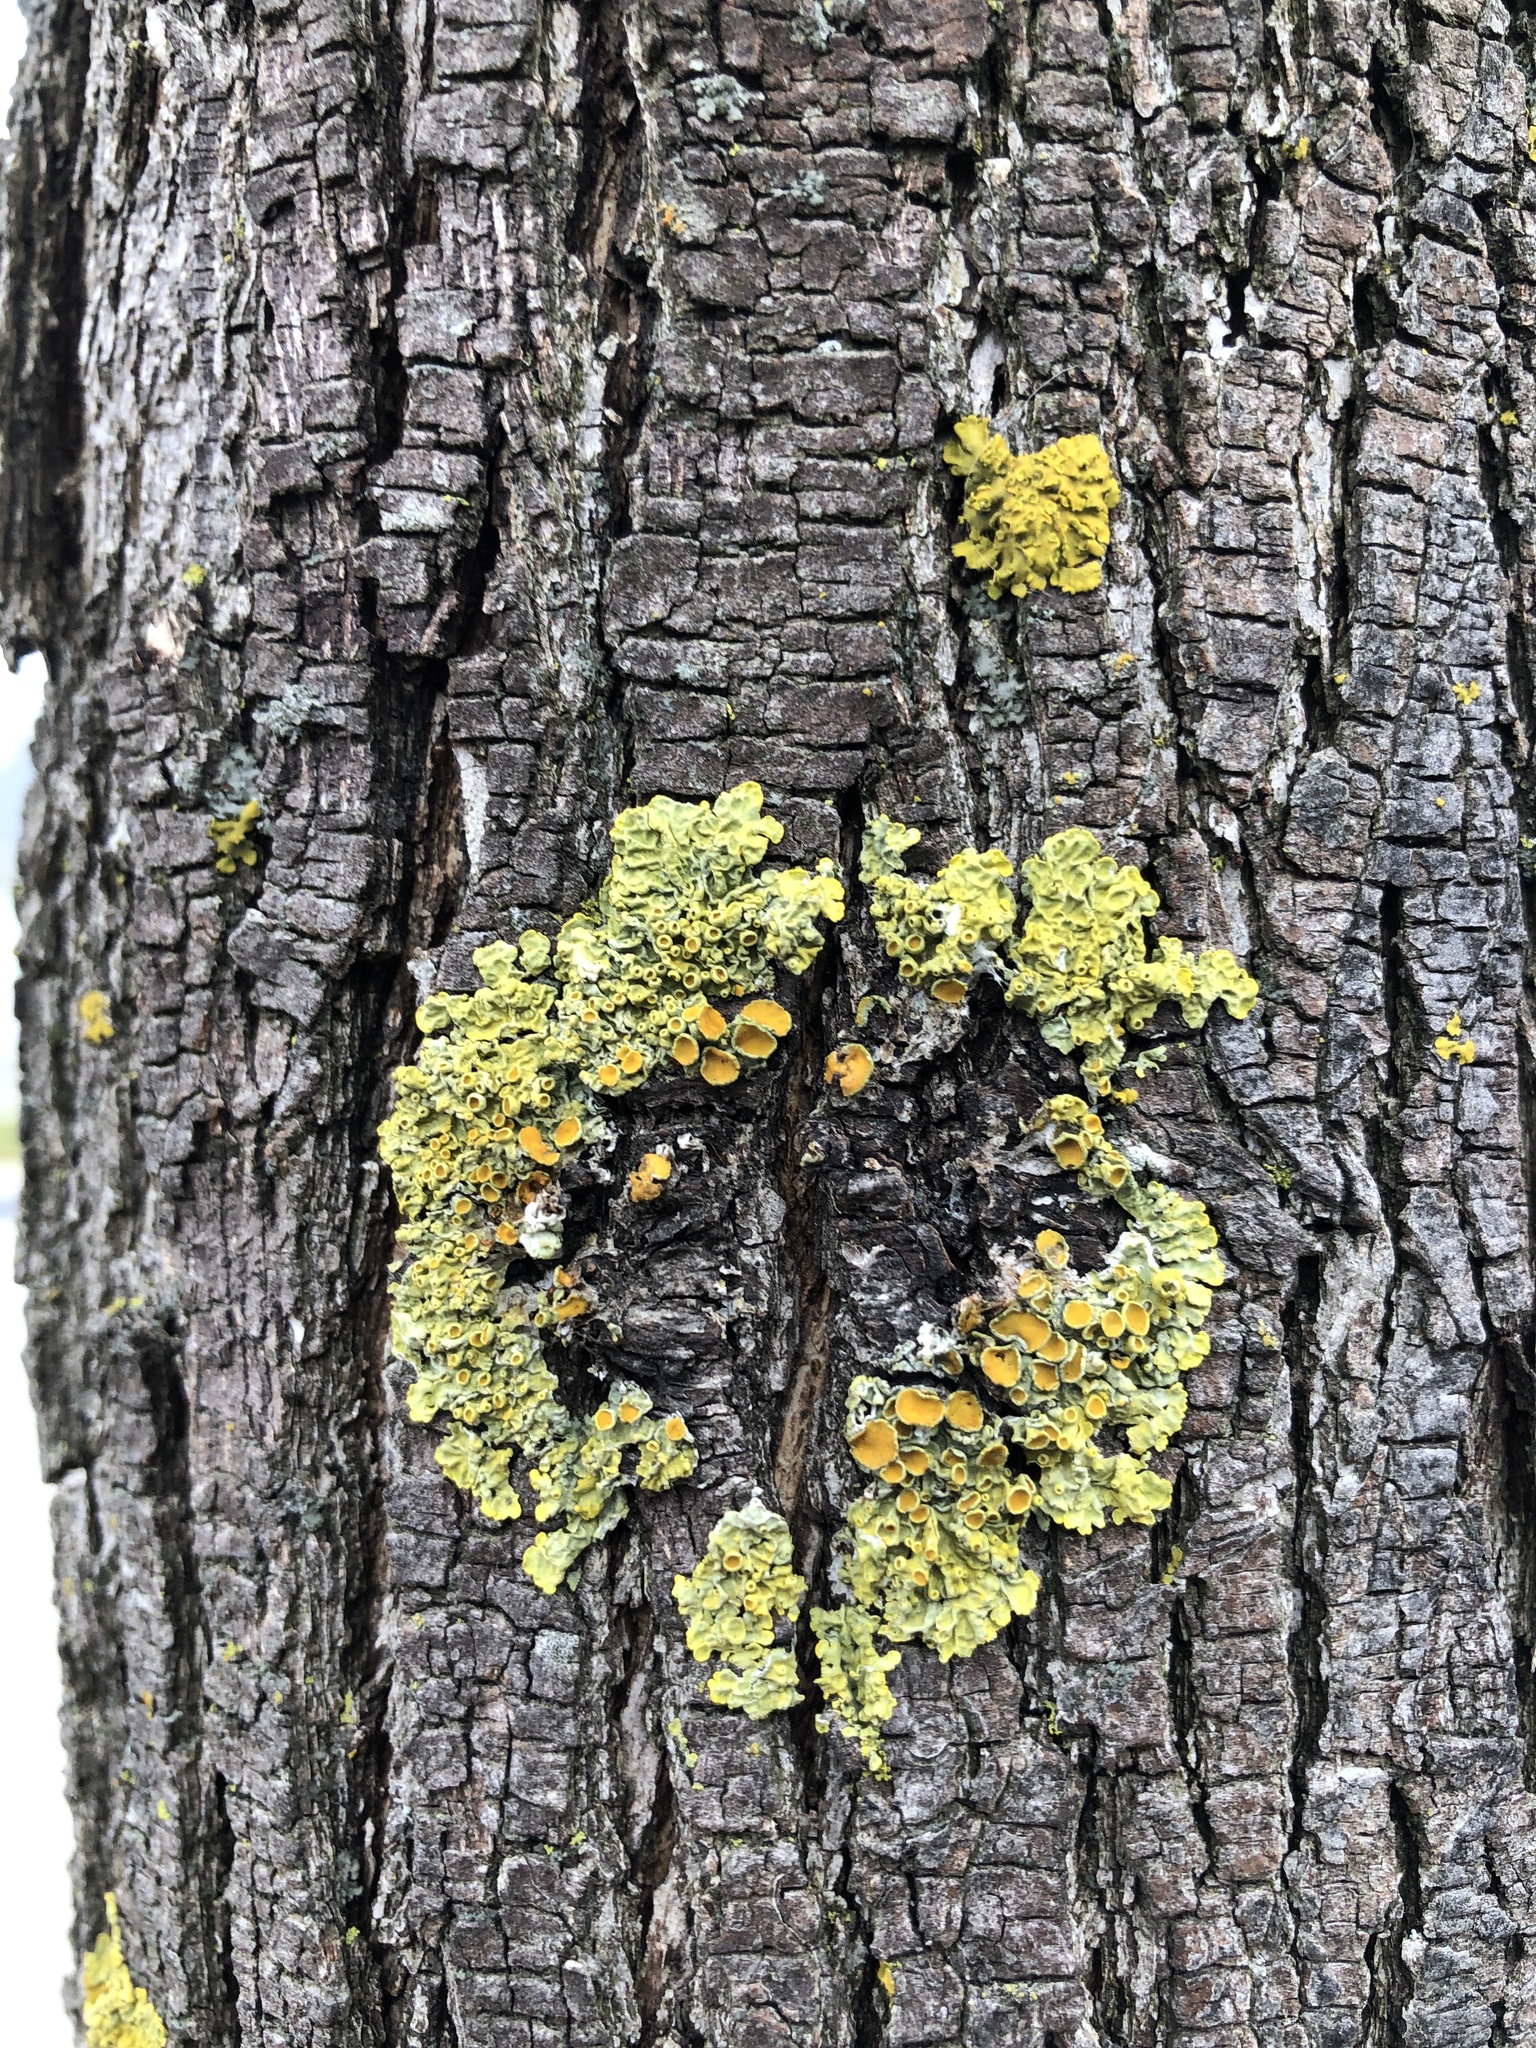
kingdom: Fungi
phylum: Ascomycota
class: Lecanoromycetes
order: Teloschistales
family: Teloschistaceae
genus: Xanthoria
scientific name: Xanthoria parietina
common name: Common orange lichen
